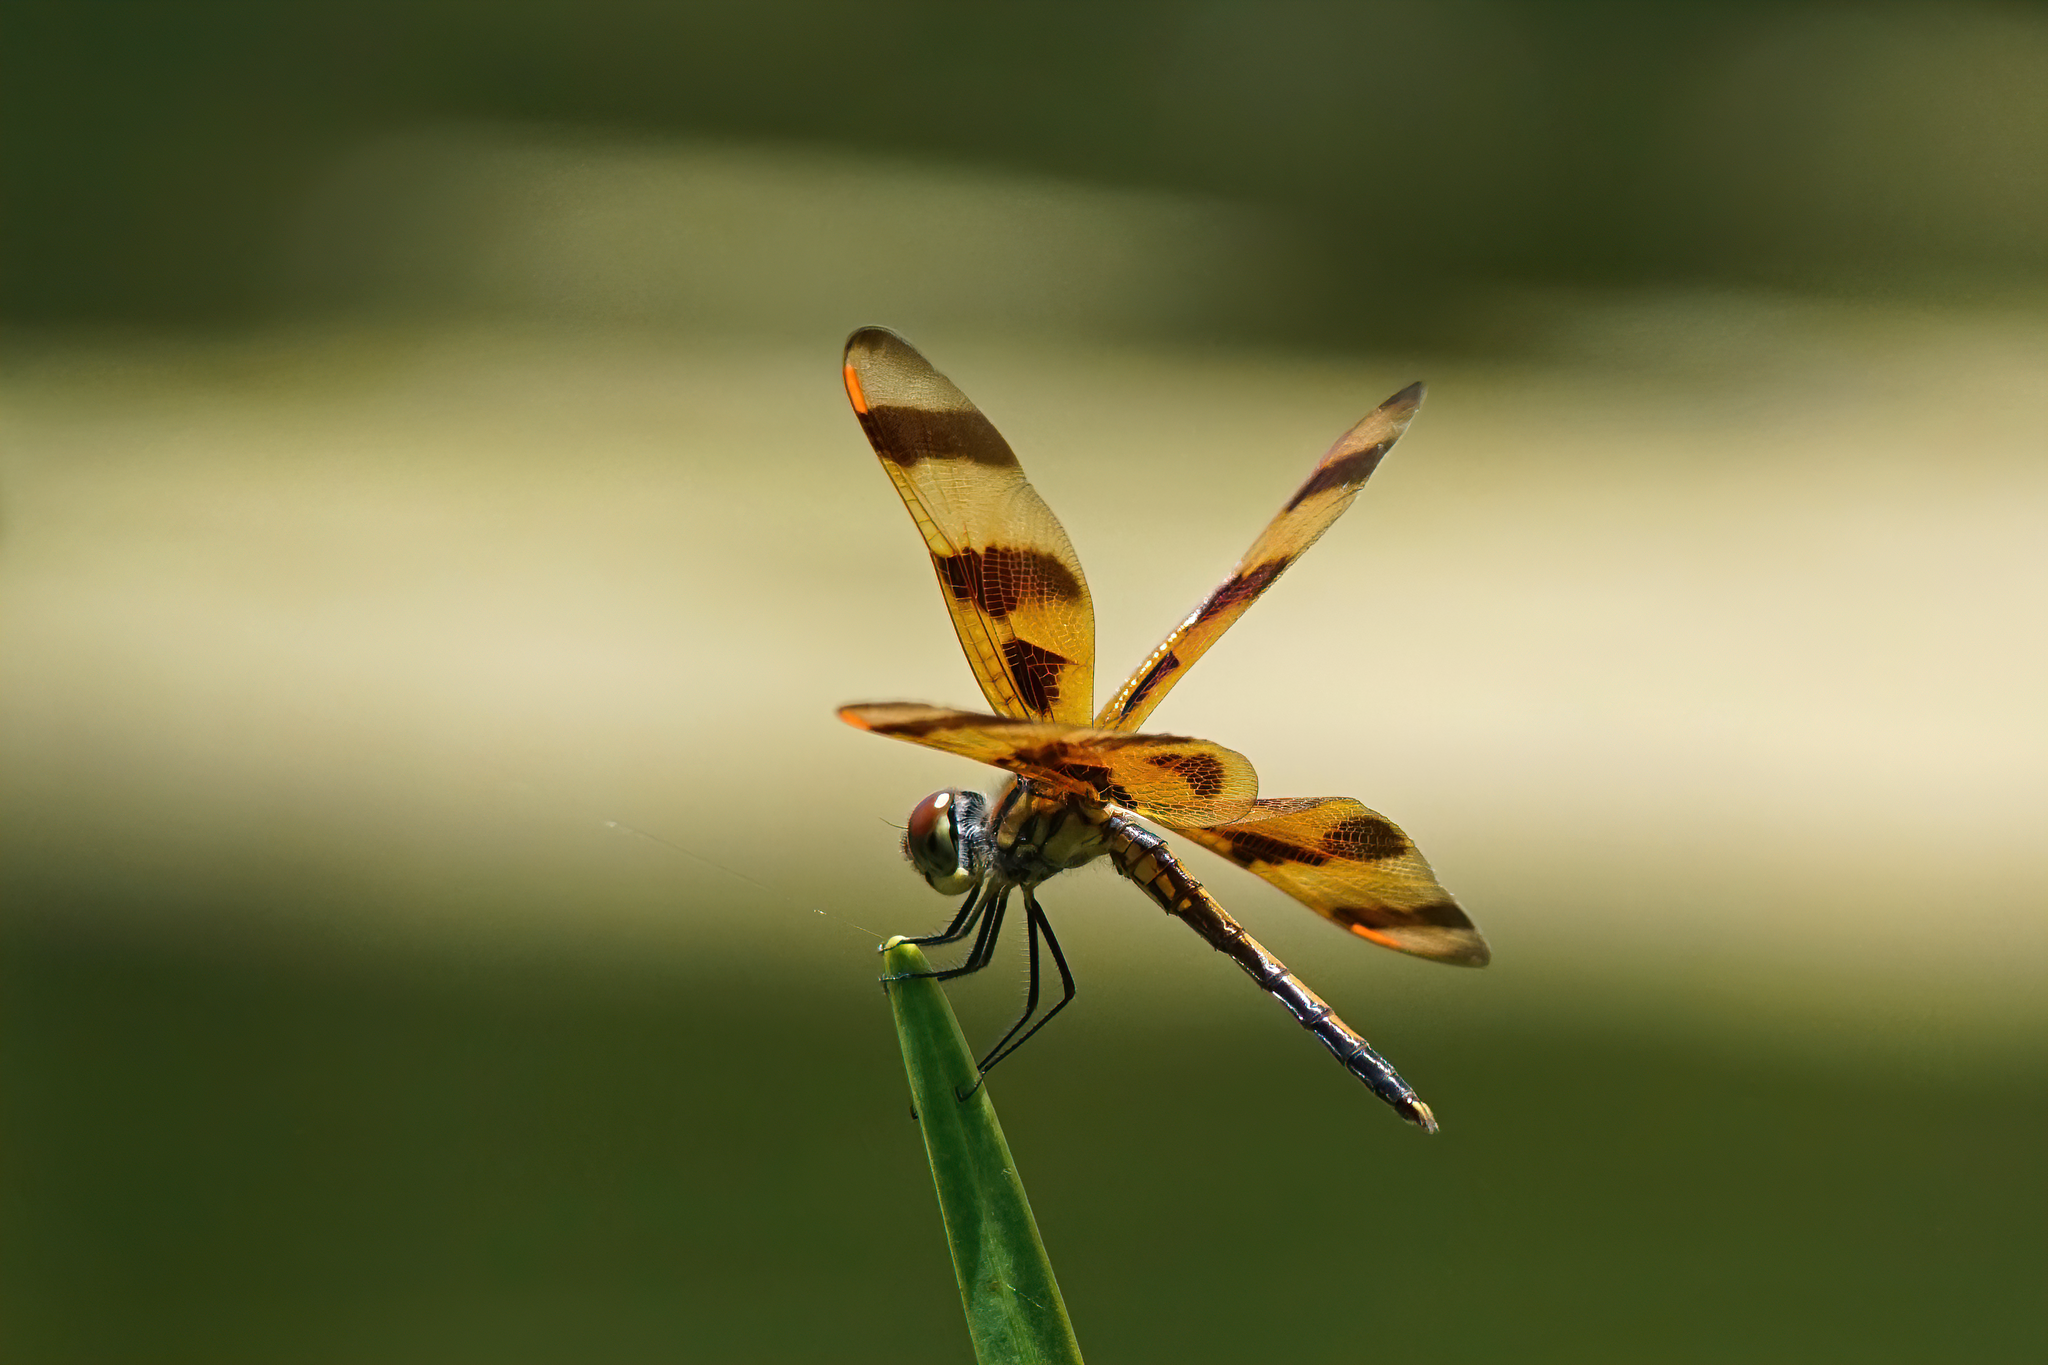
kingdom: Animalia
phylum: Arthropoda
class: Insecta
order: Odonata
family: Libellulidae
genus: Celithemis
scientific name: Celithemis eponina
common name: Halloween pennant
